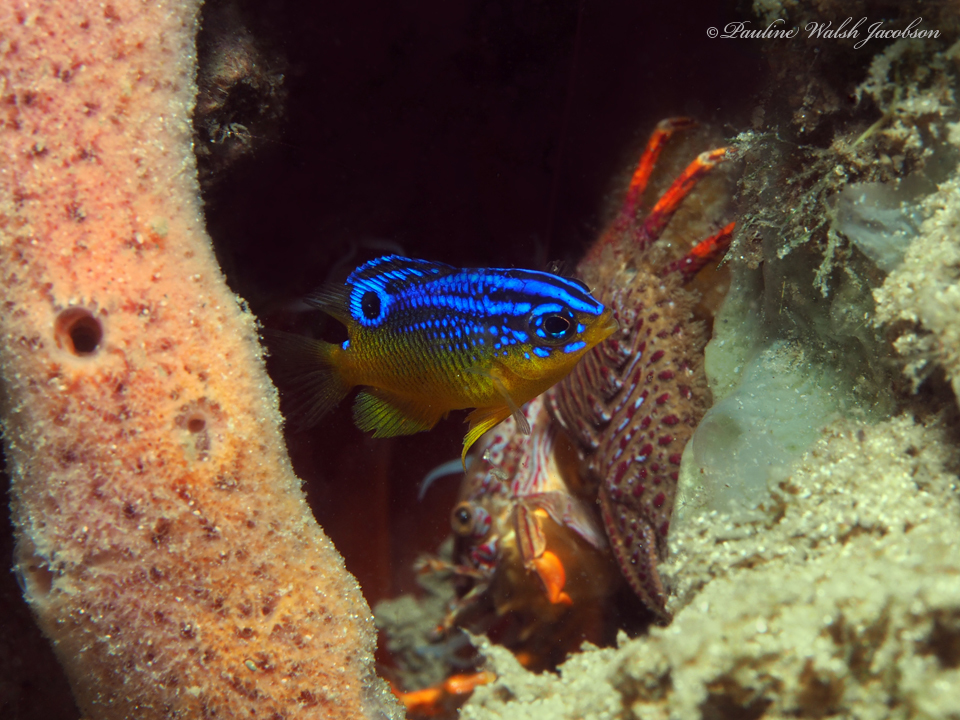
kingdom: Animalia
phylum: Arthropoda
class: Malacostraca
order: Decapoda
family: Porcellanidae
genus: Petrolisthes
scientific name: Petrolisthes galathinus
